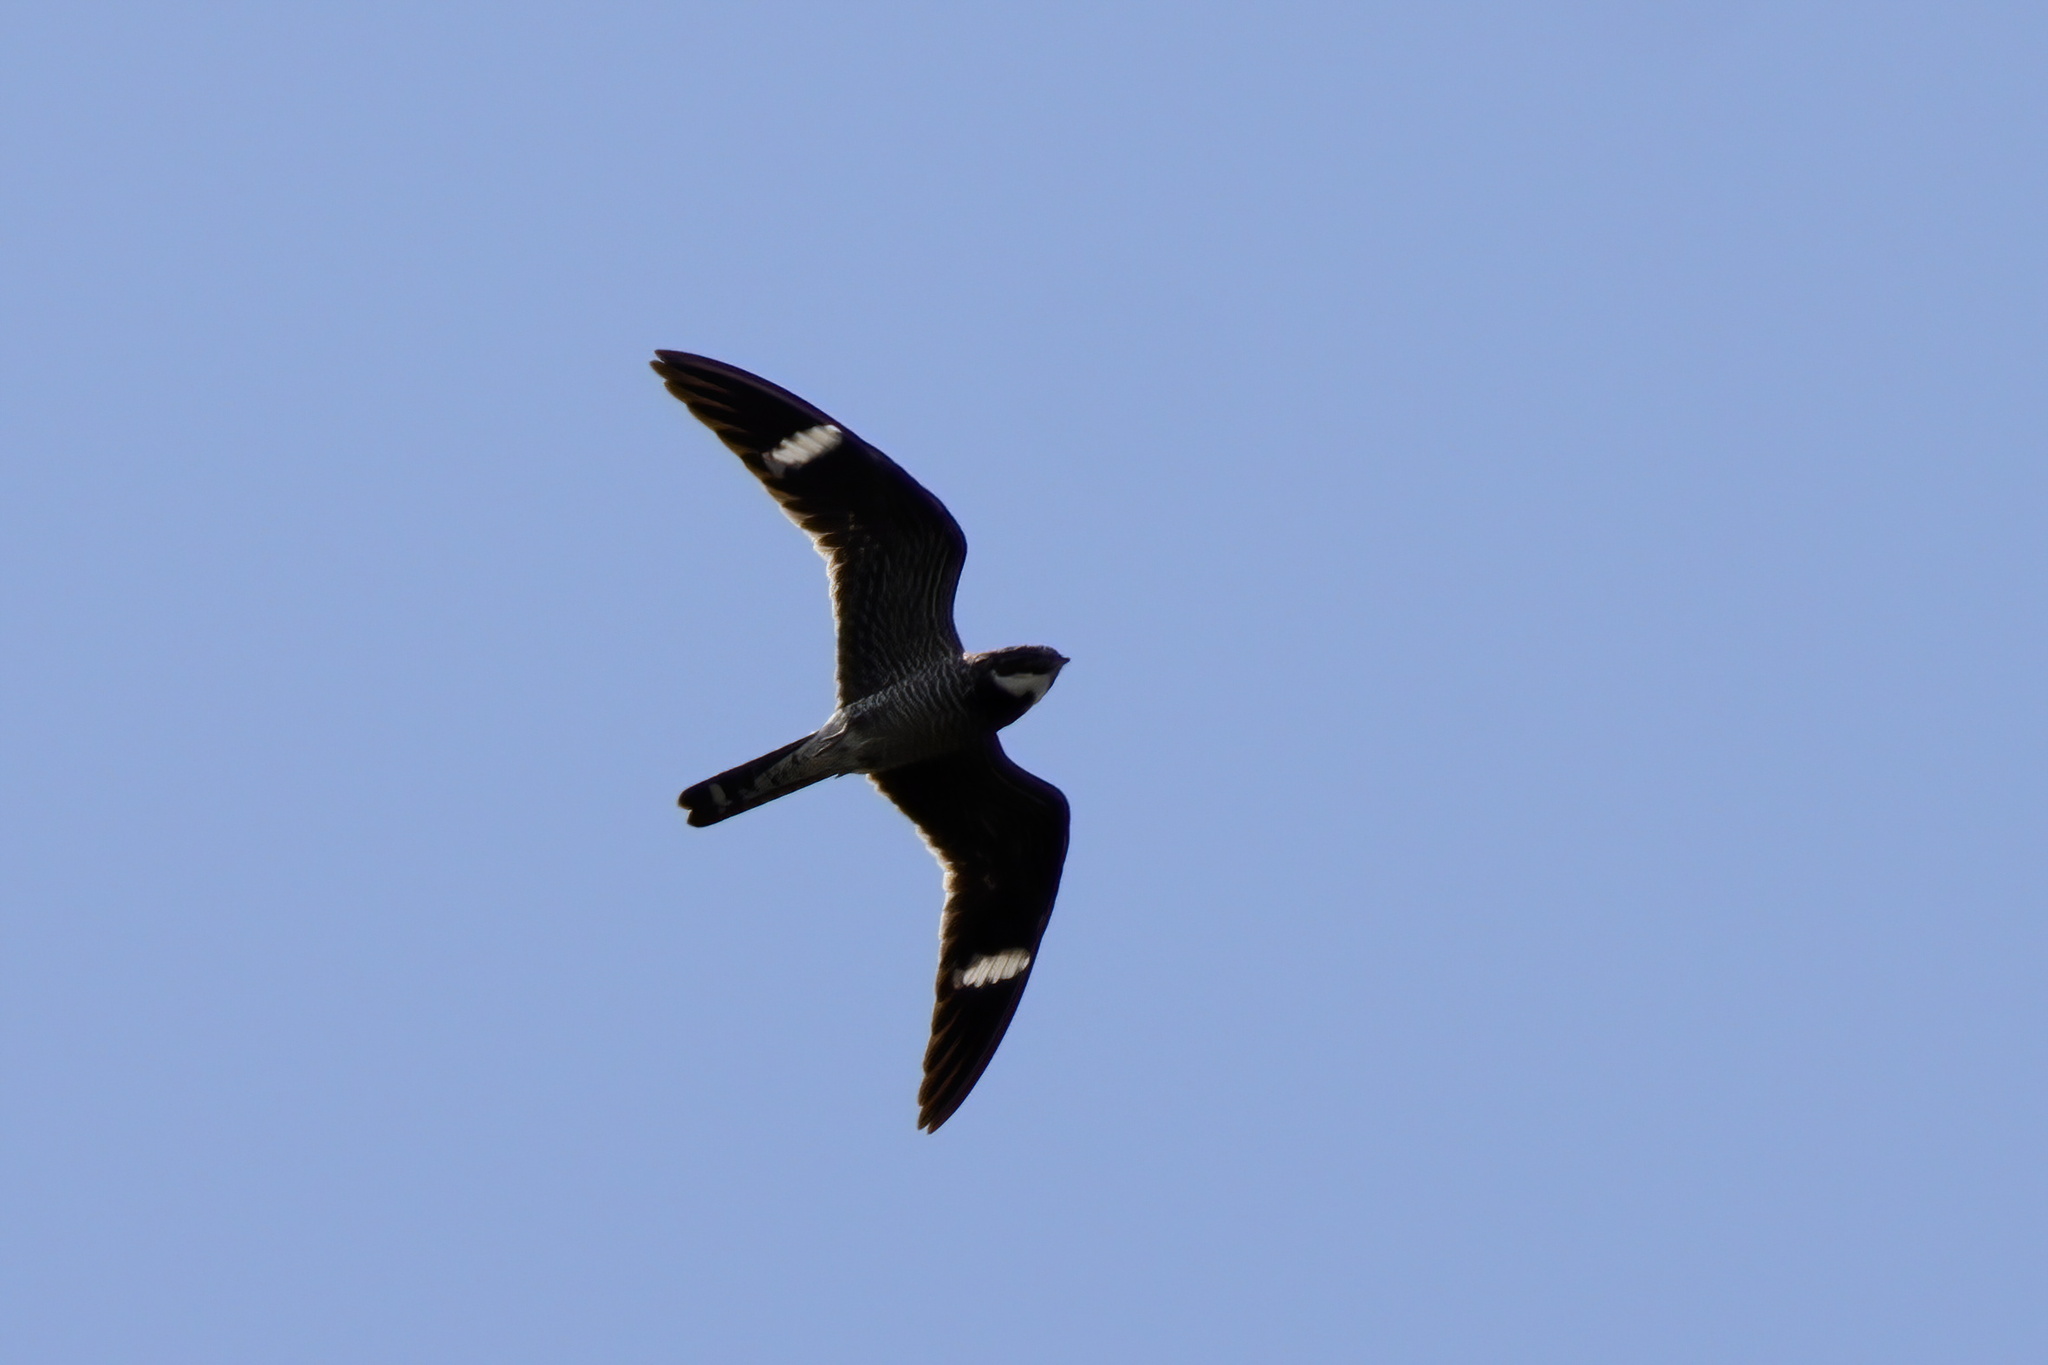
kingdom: Animalia
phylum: Chordata
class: Aves
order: Caprimulgiformes
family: Caprimulgidae
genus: Chordeiles
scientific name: Chordeiles minor
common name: Common nighthawk
